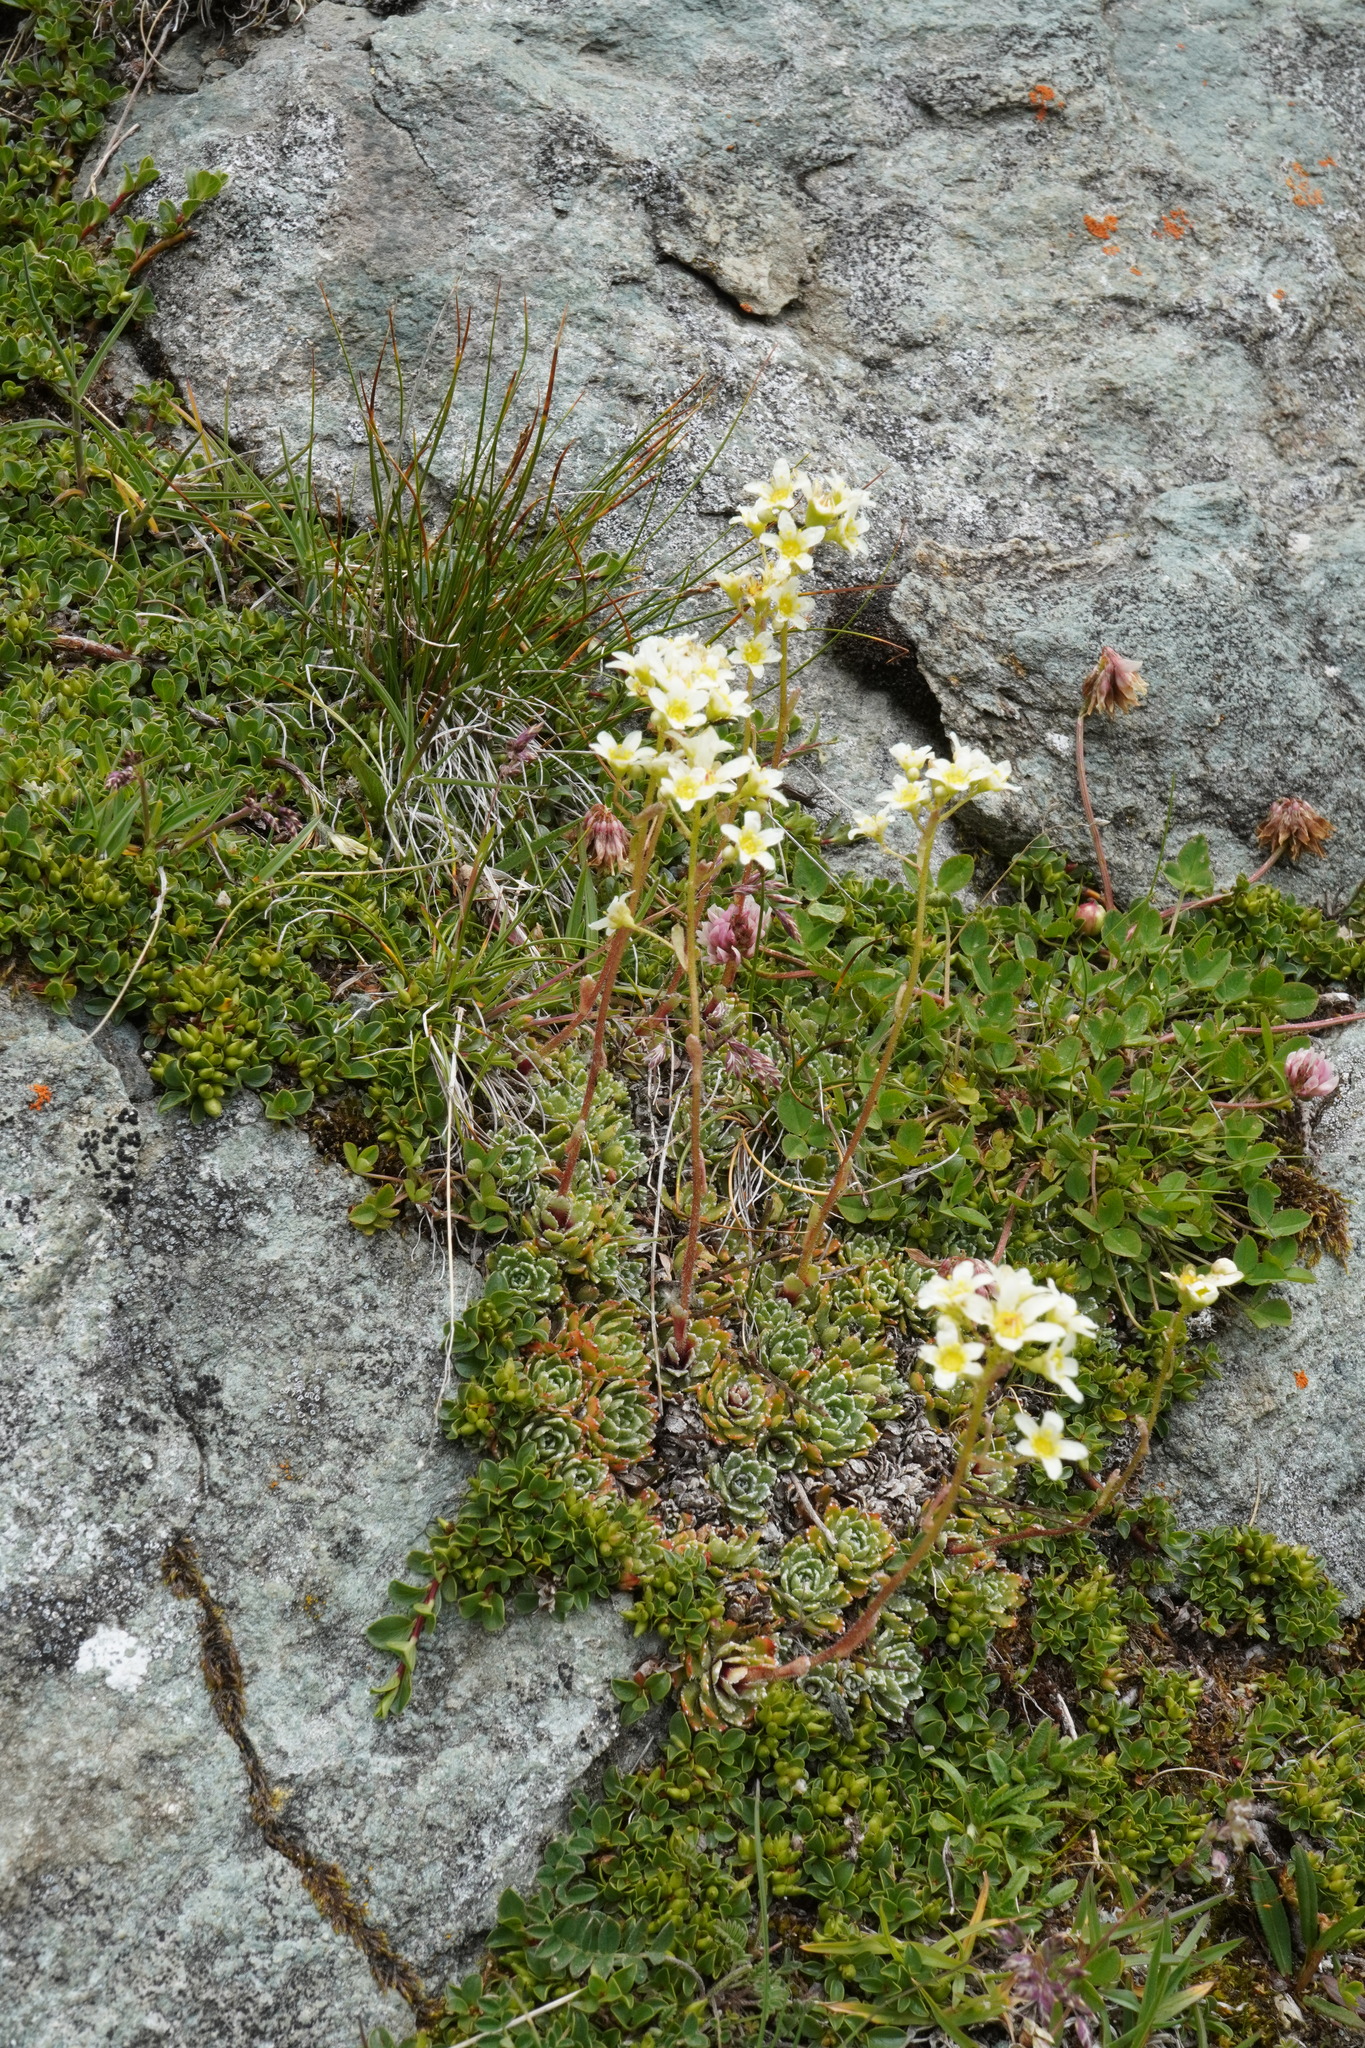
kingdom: Plantae
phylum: Tracheophyta
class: Magnoliopsida
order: Saxifragales
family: Saxifragaceae
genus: Saxifraga
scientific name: Saxifraga paniculata
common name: Livelong saxifrage
